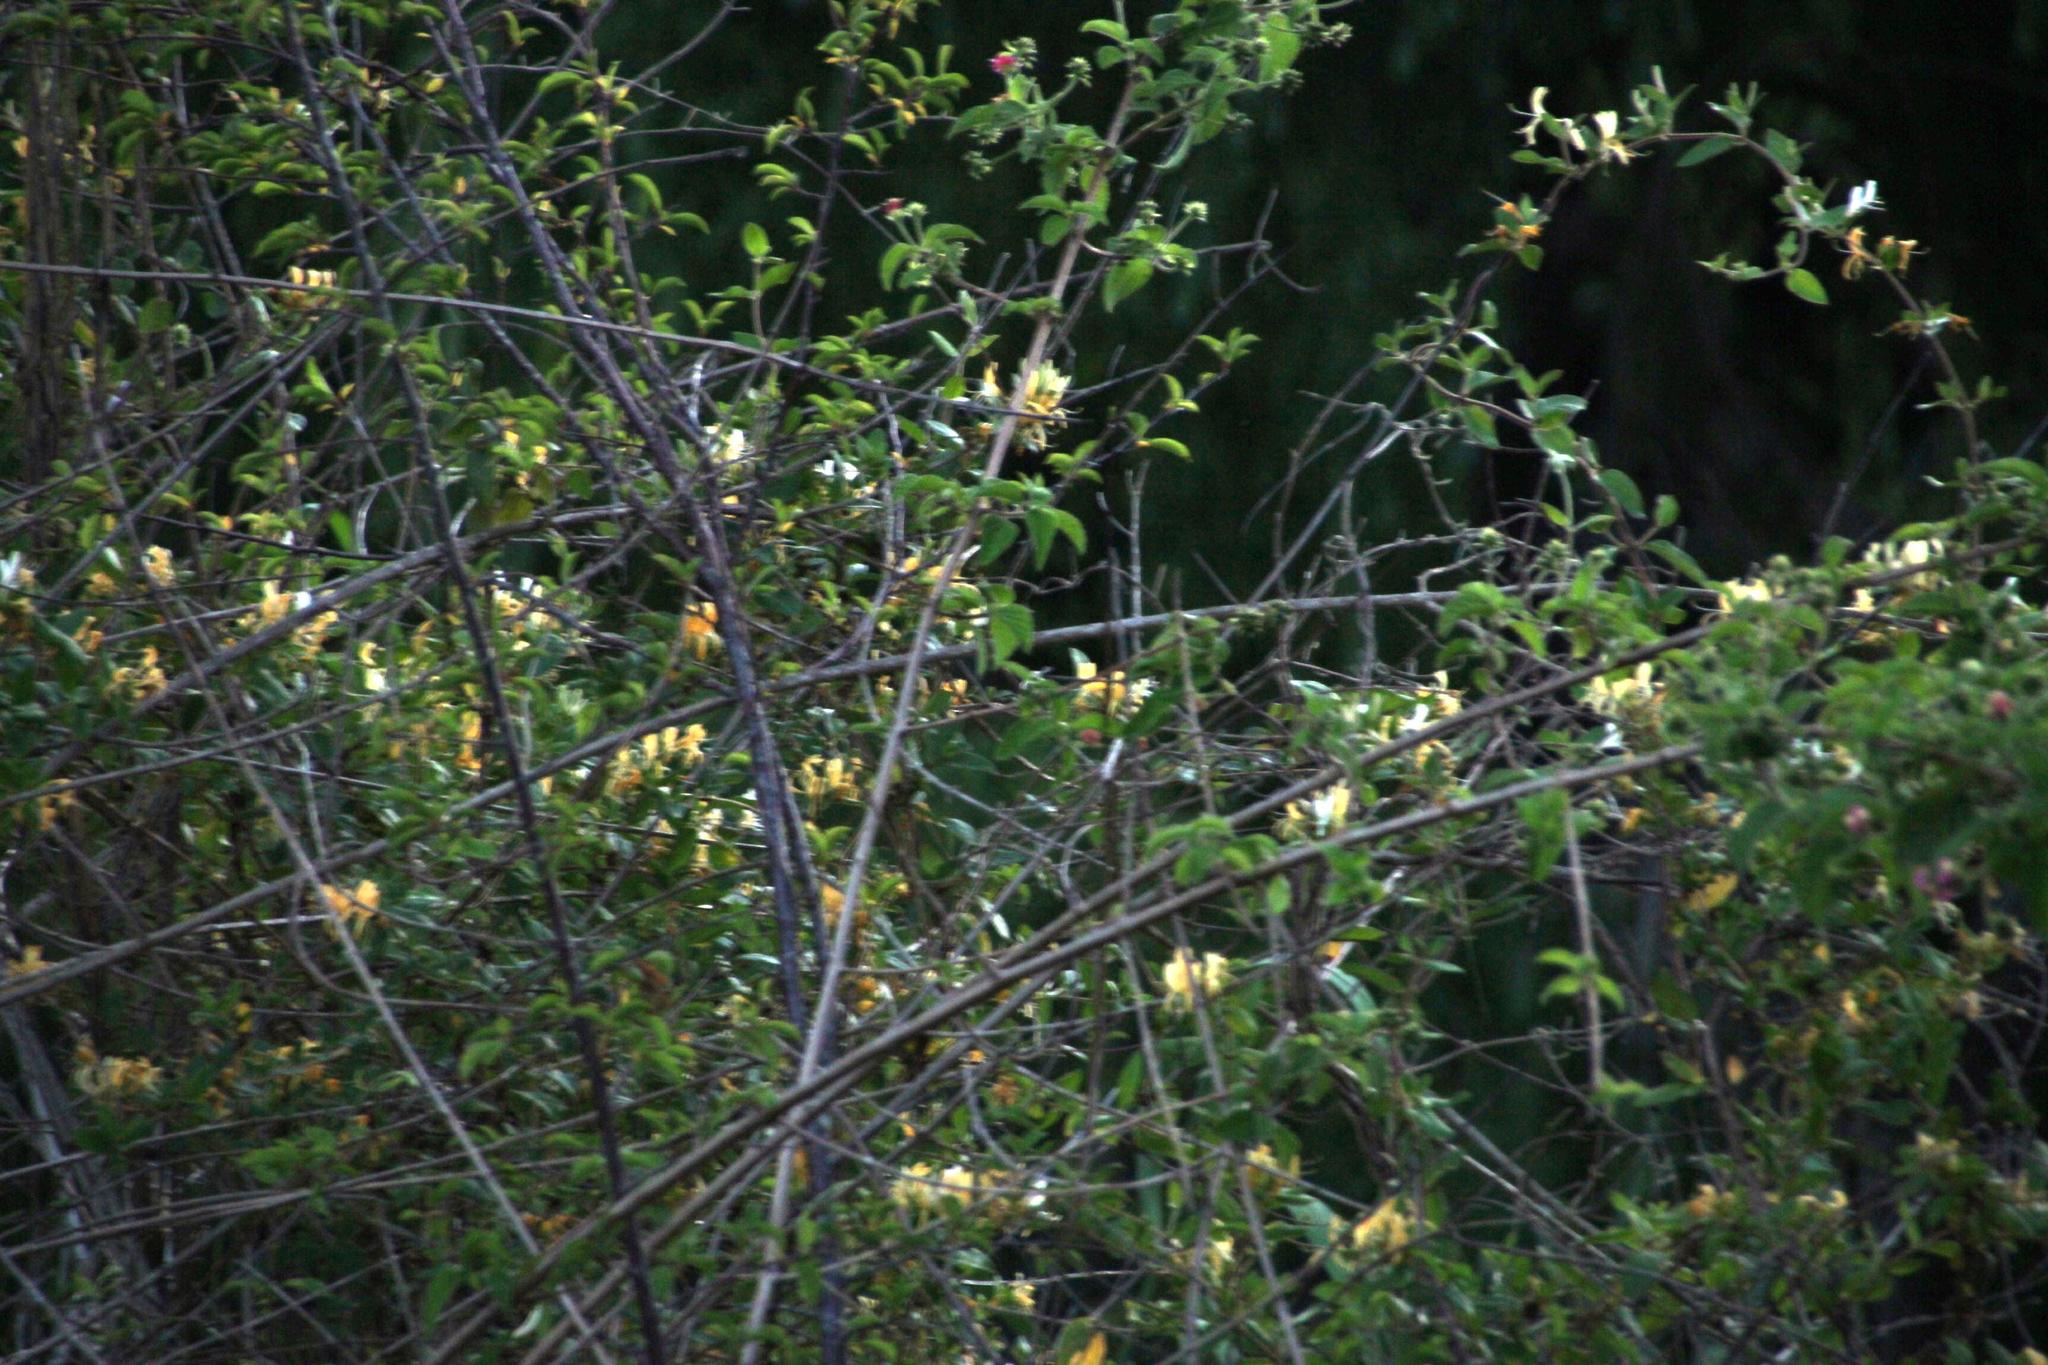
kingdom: Plantae
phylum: Tracheophyta
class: Magnoliopsida
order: Dipsacales
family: Caprifoliaceae
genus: Lonicera
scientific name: Lonicera japonica
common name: Japanese honeysuckle
